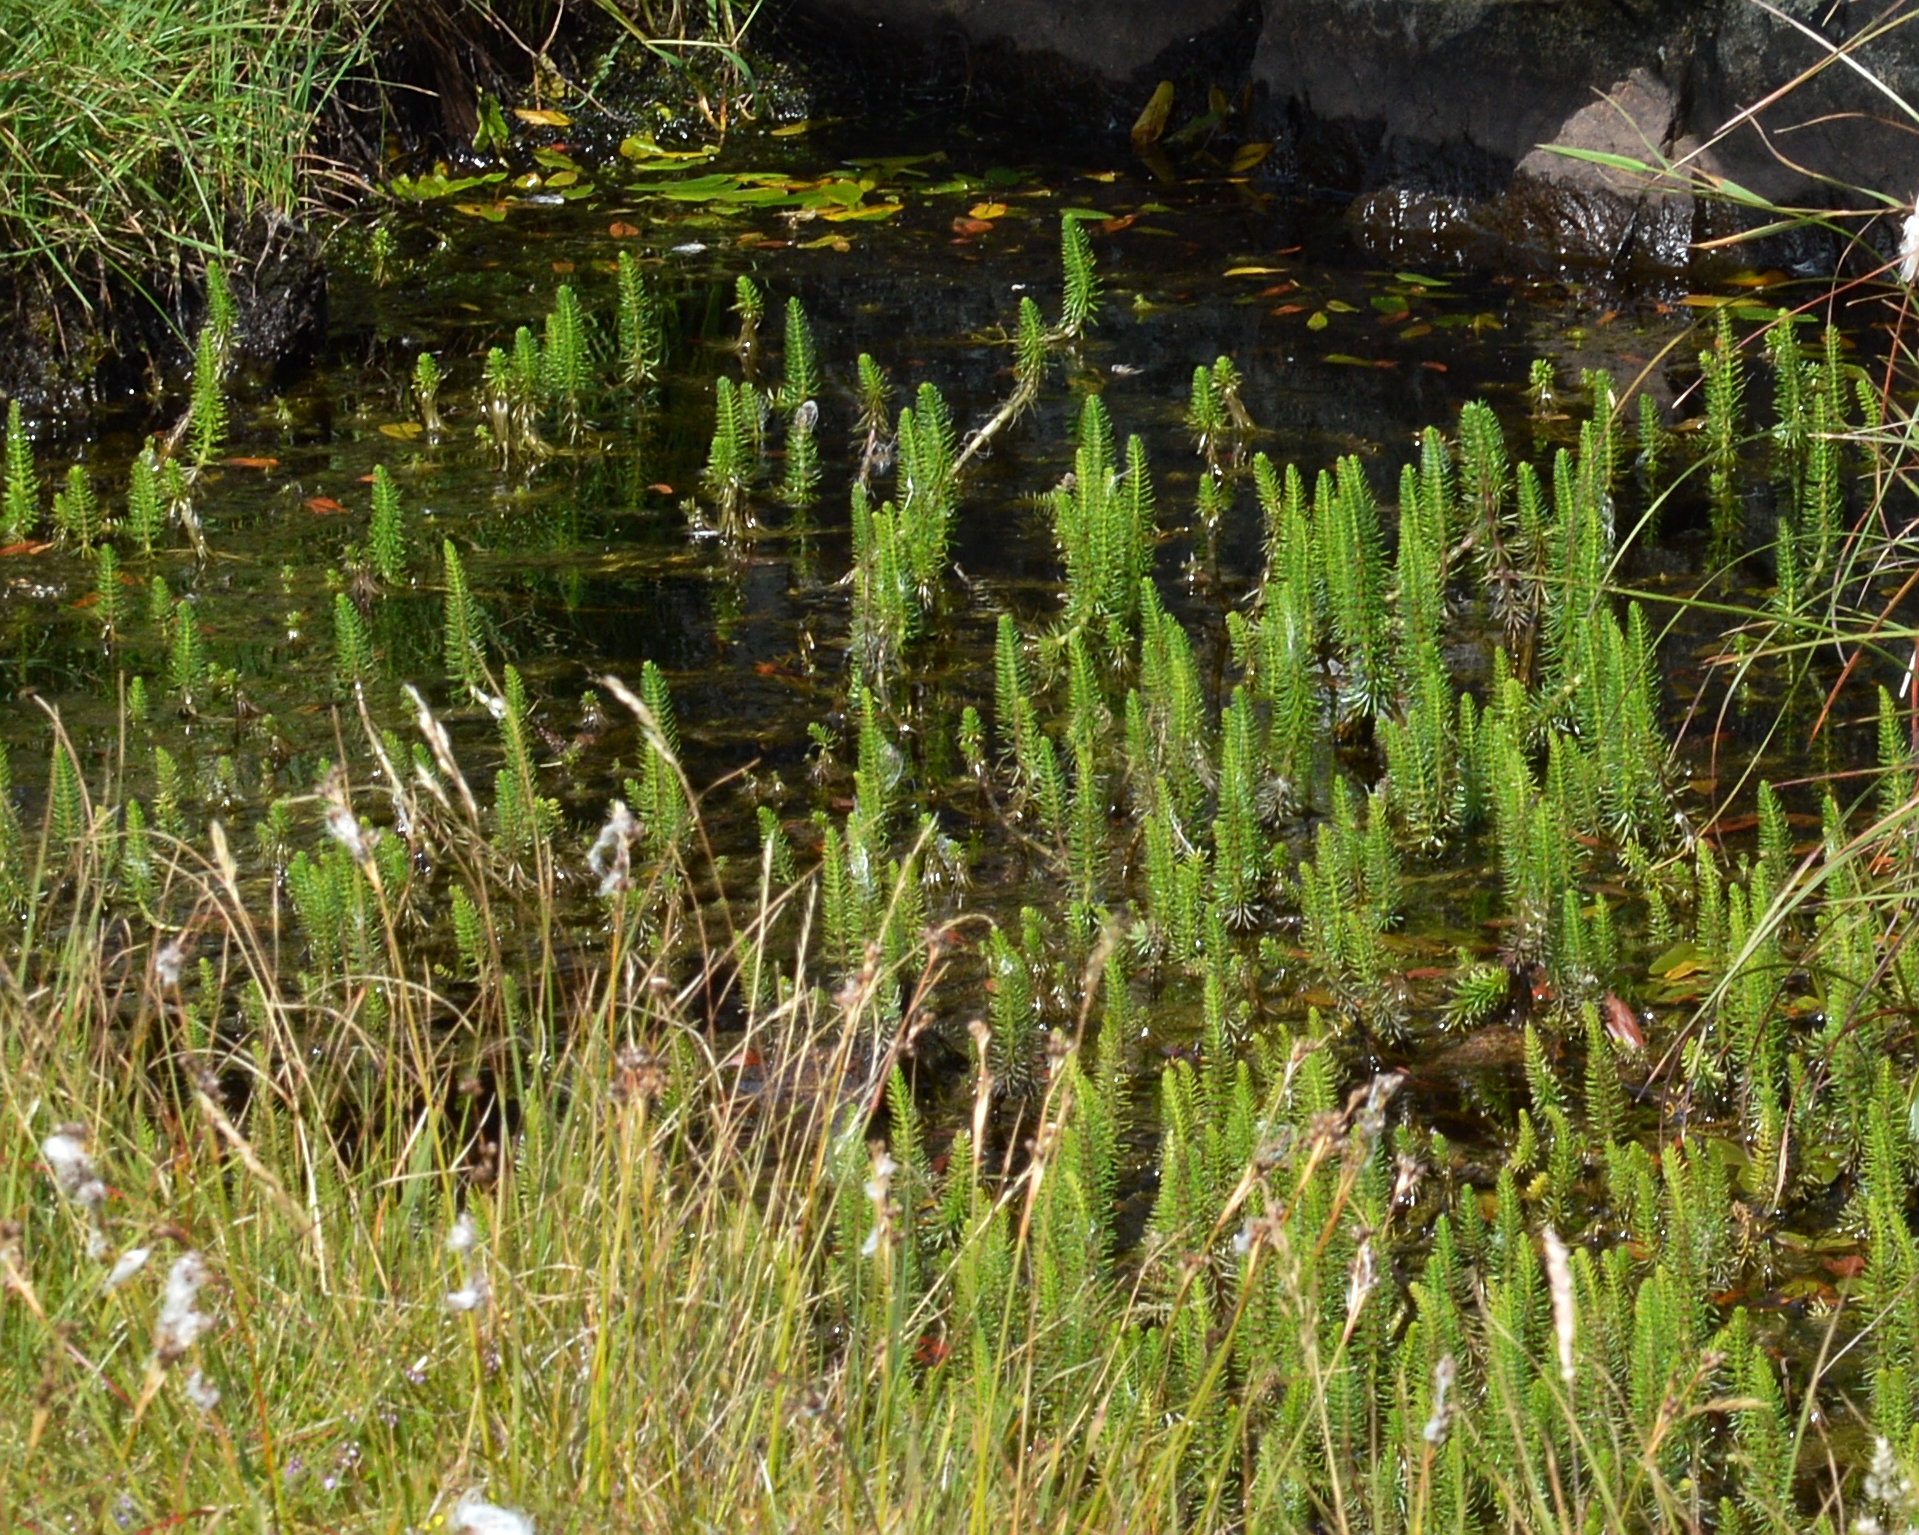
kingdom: Plantae
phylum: Tracheophyta
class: Magnoliopsida
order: Lamiales
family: Plantaginaceae
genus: Hippuris
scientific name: Hippuris vulgaris
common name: Mare's-tail
